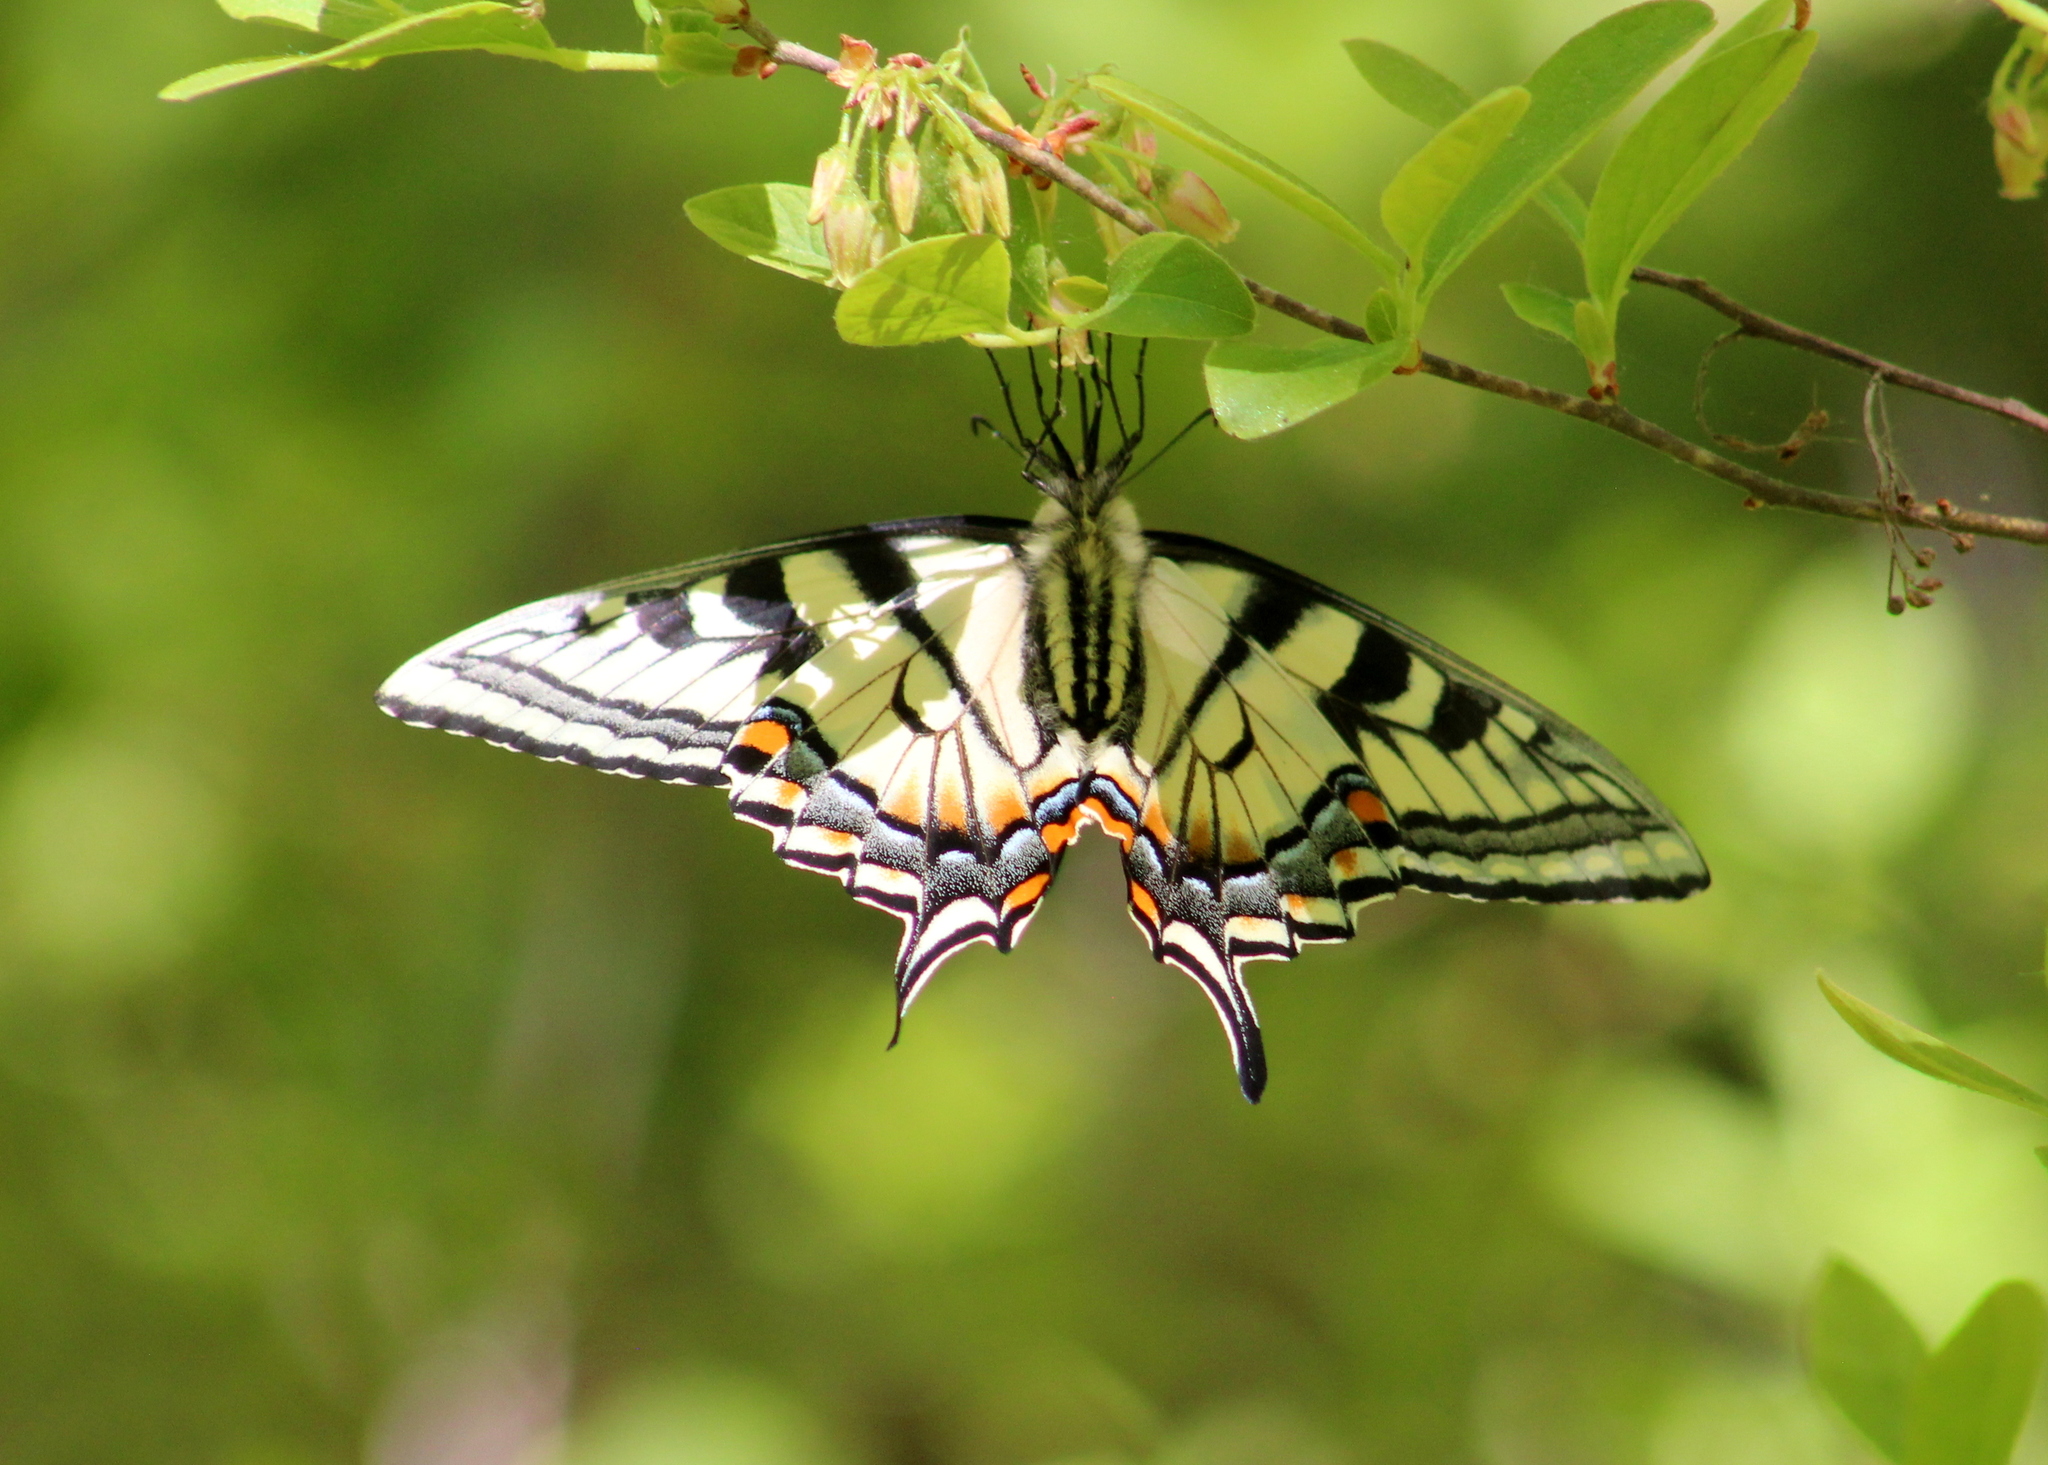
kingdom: Animalia
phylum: Arthropoda
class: Insecta
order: Lepidoptera
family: Papilionidae
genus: Papilio
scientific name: Papilio canadensis
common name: Canadian tiger swallowtail
